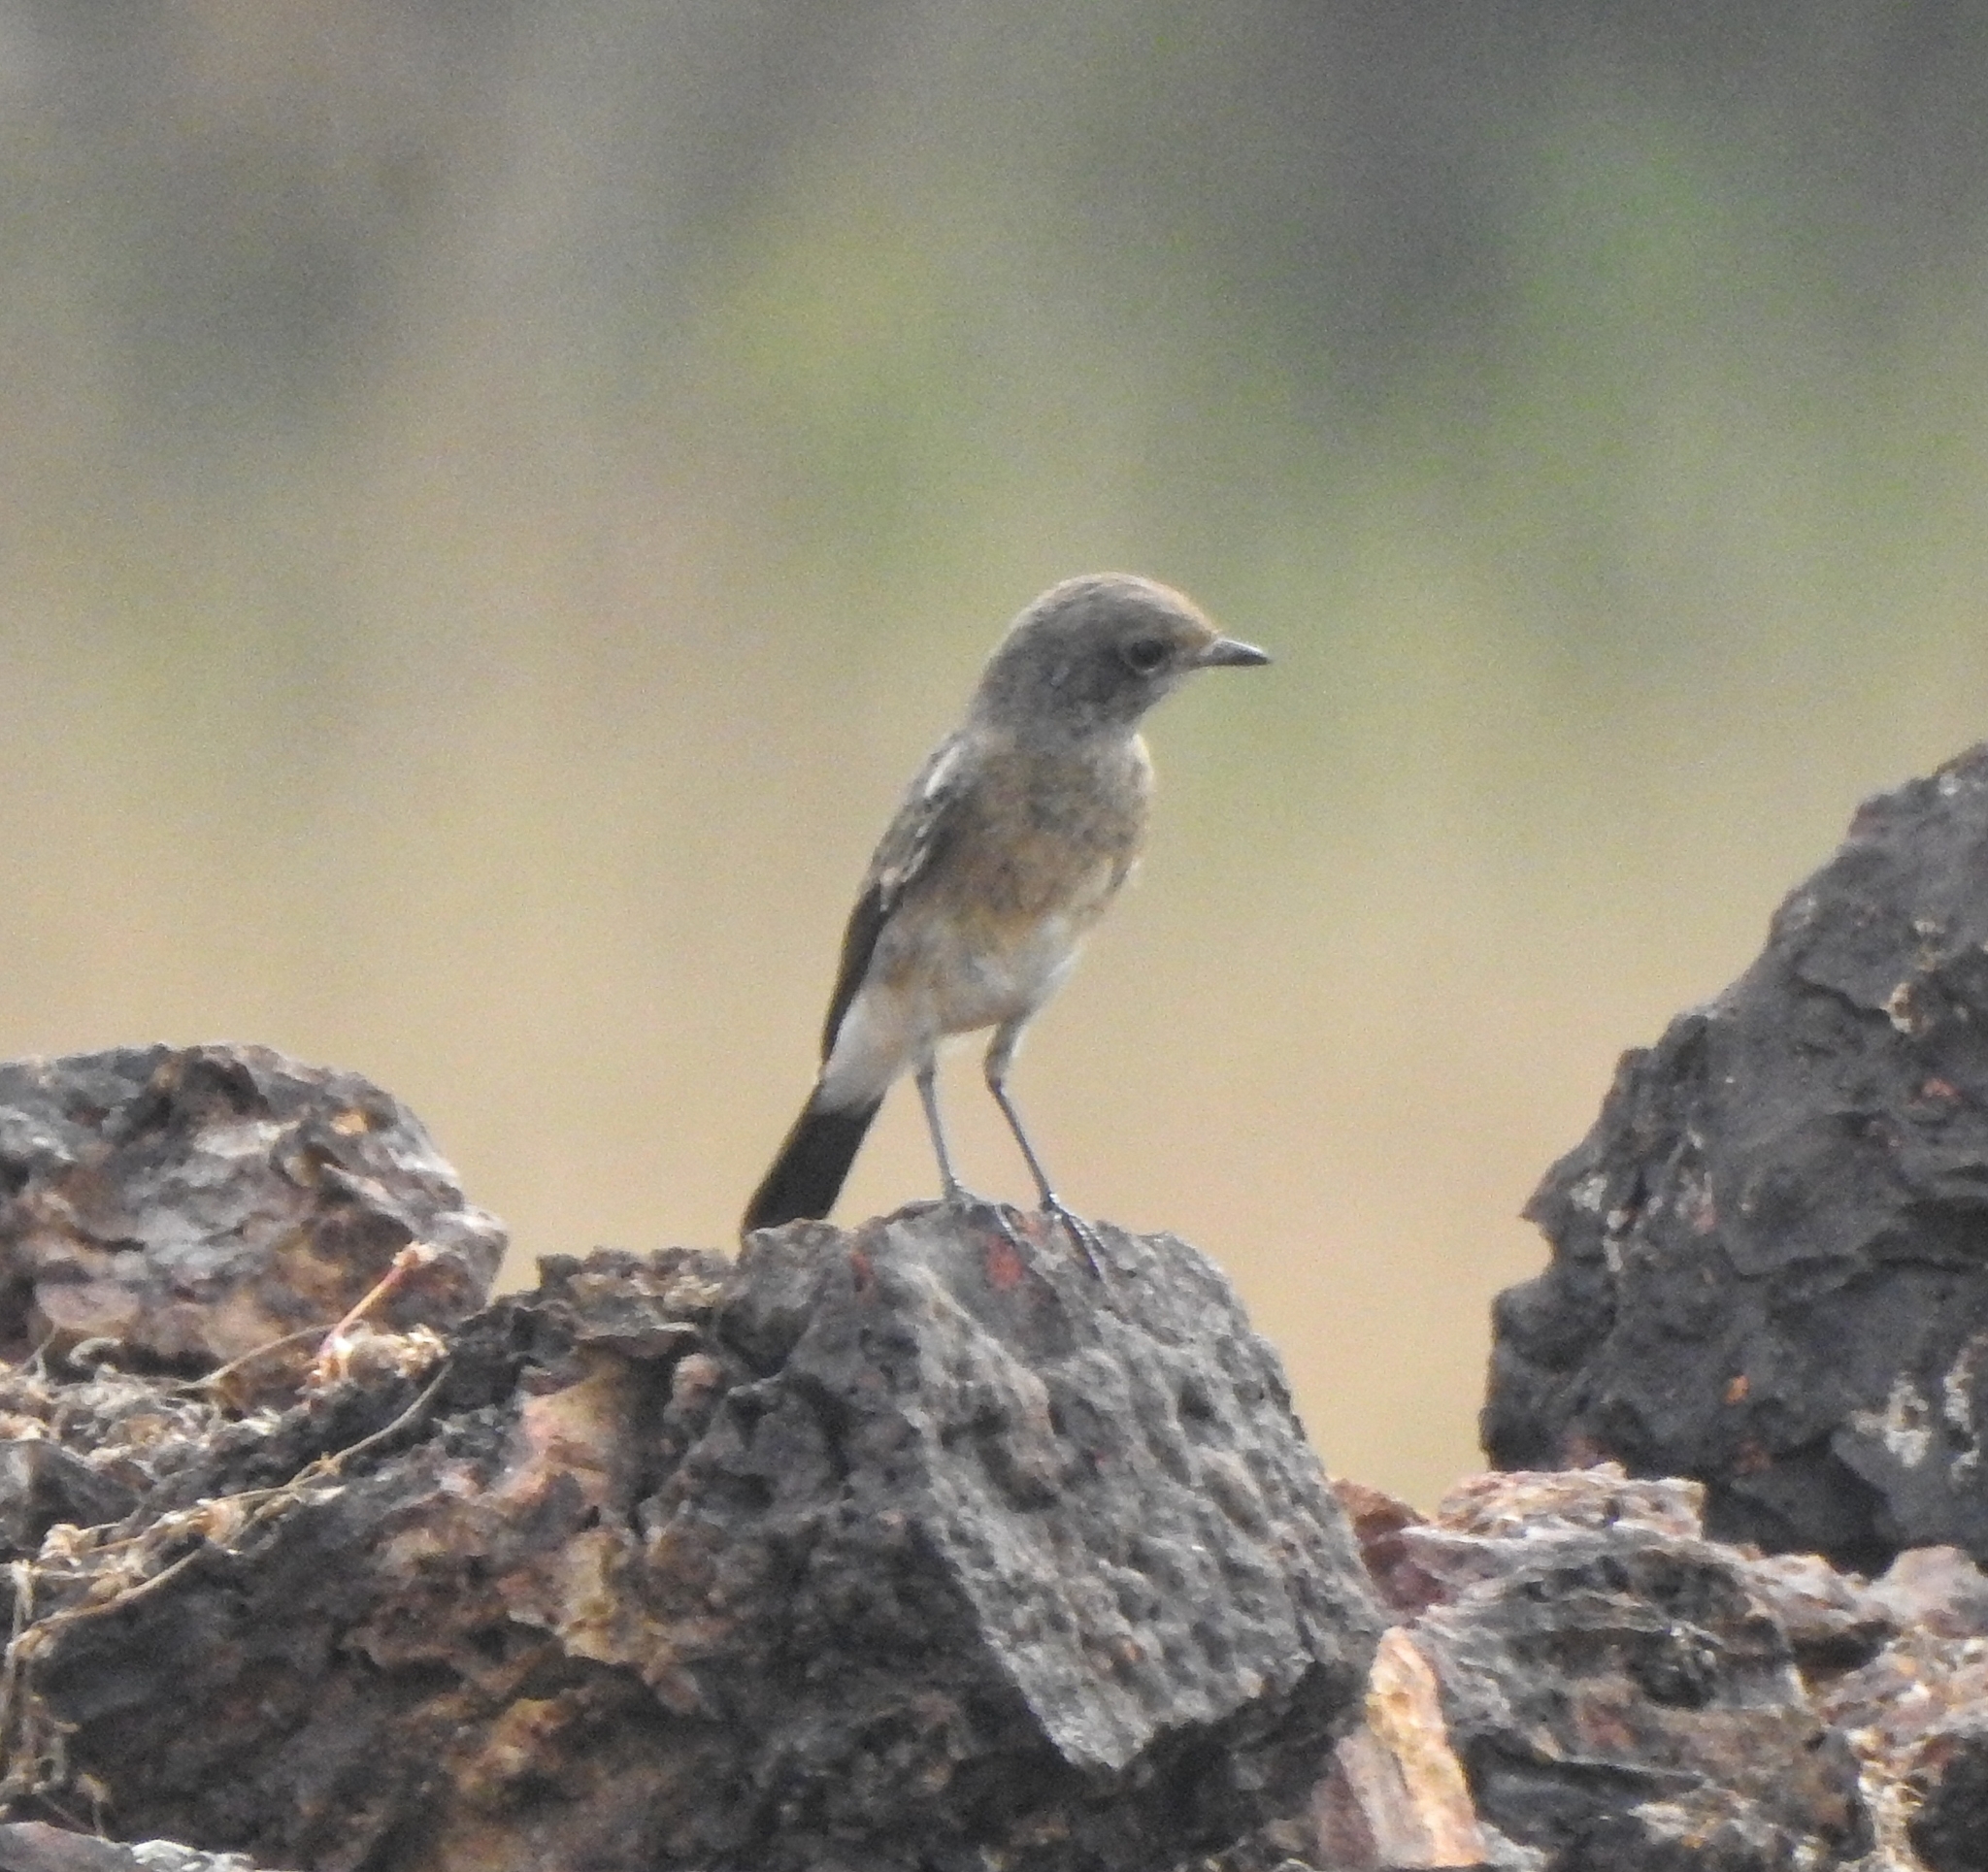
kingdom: Animalia
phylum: Chordata
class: Aves
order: Passeriformes
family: Muscicapidae
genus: Saxicola
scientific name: Saxicola caprata
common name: Pied bush chat
